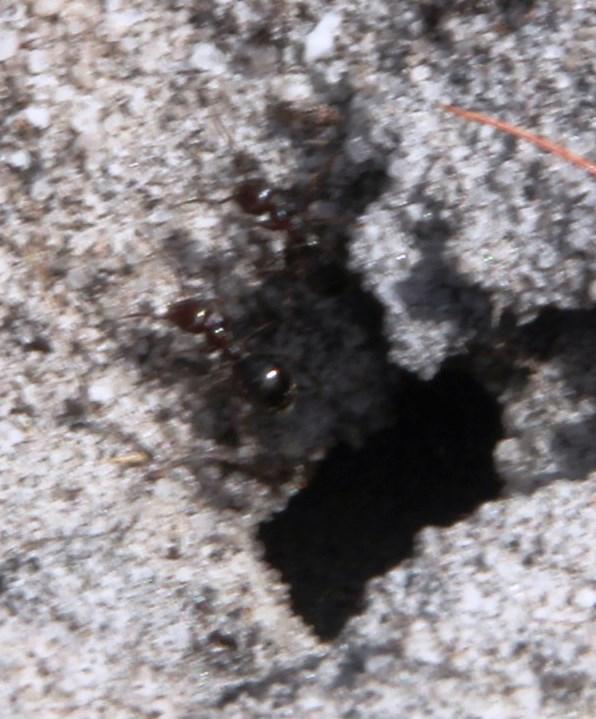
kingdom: Animalia
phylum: Arthropoda
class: Insecta
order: Hymenoptera
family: Formicidae
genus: Anoplolepis
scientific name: Anoplolepis steingroeveri
